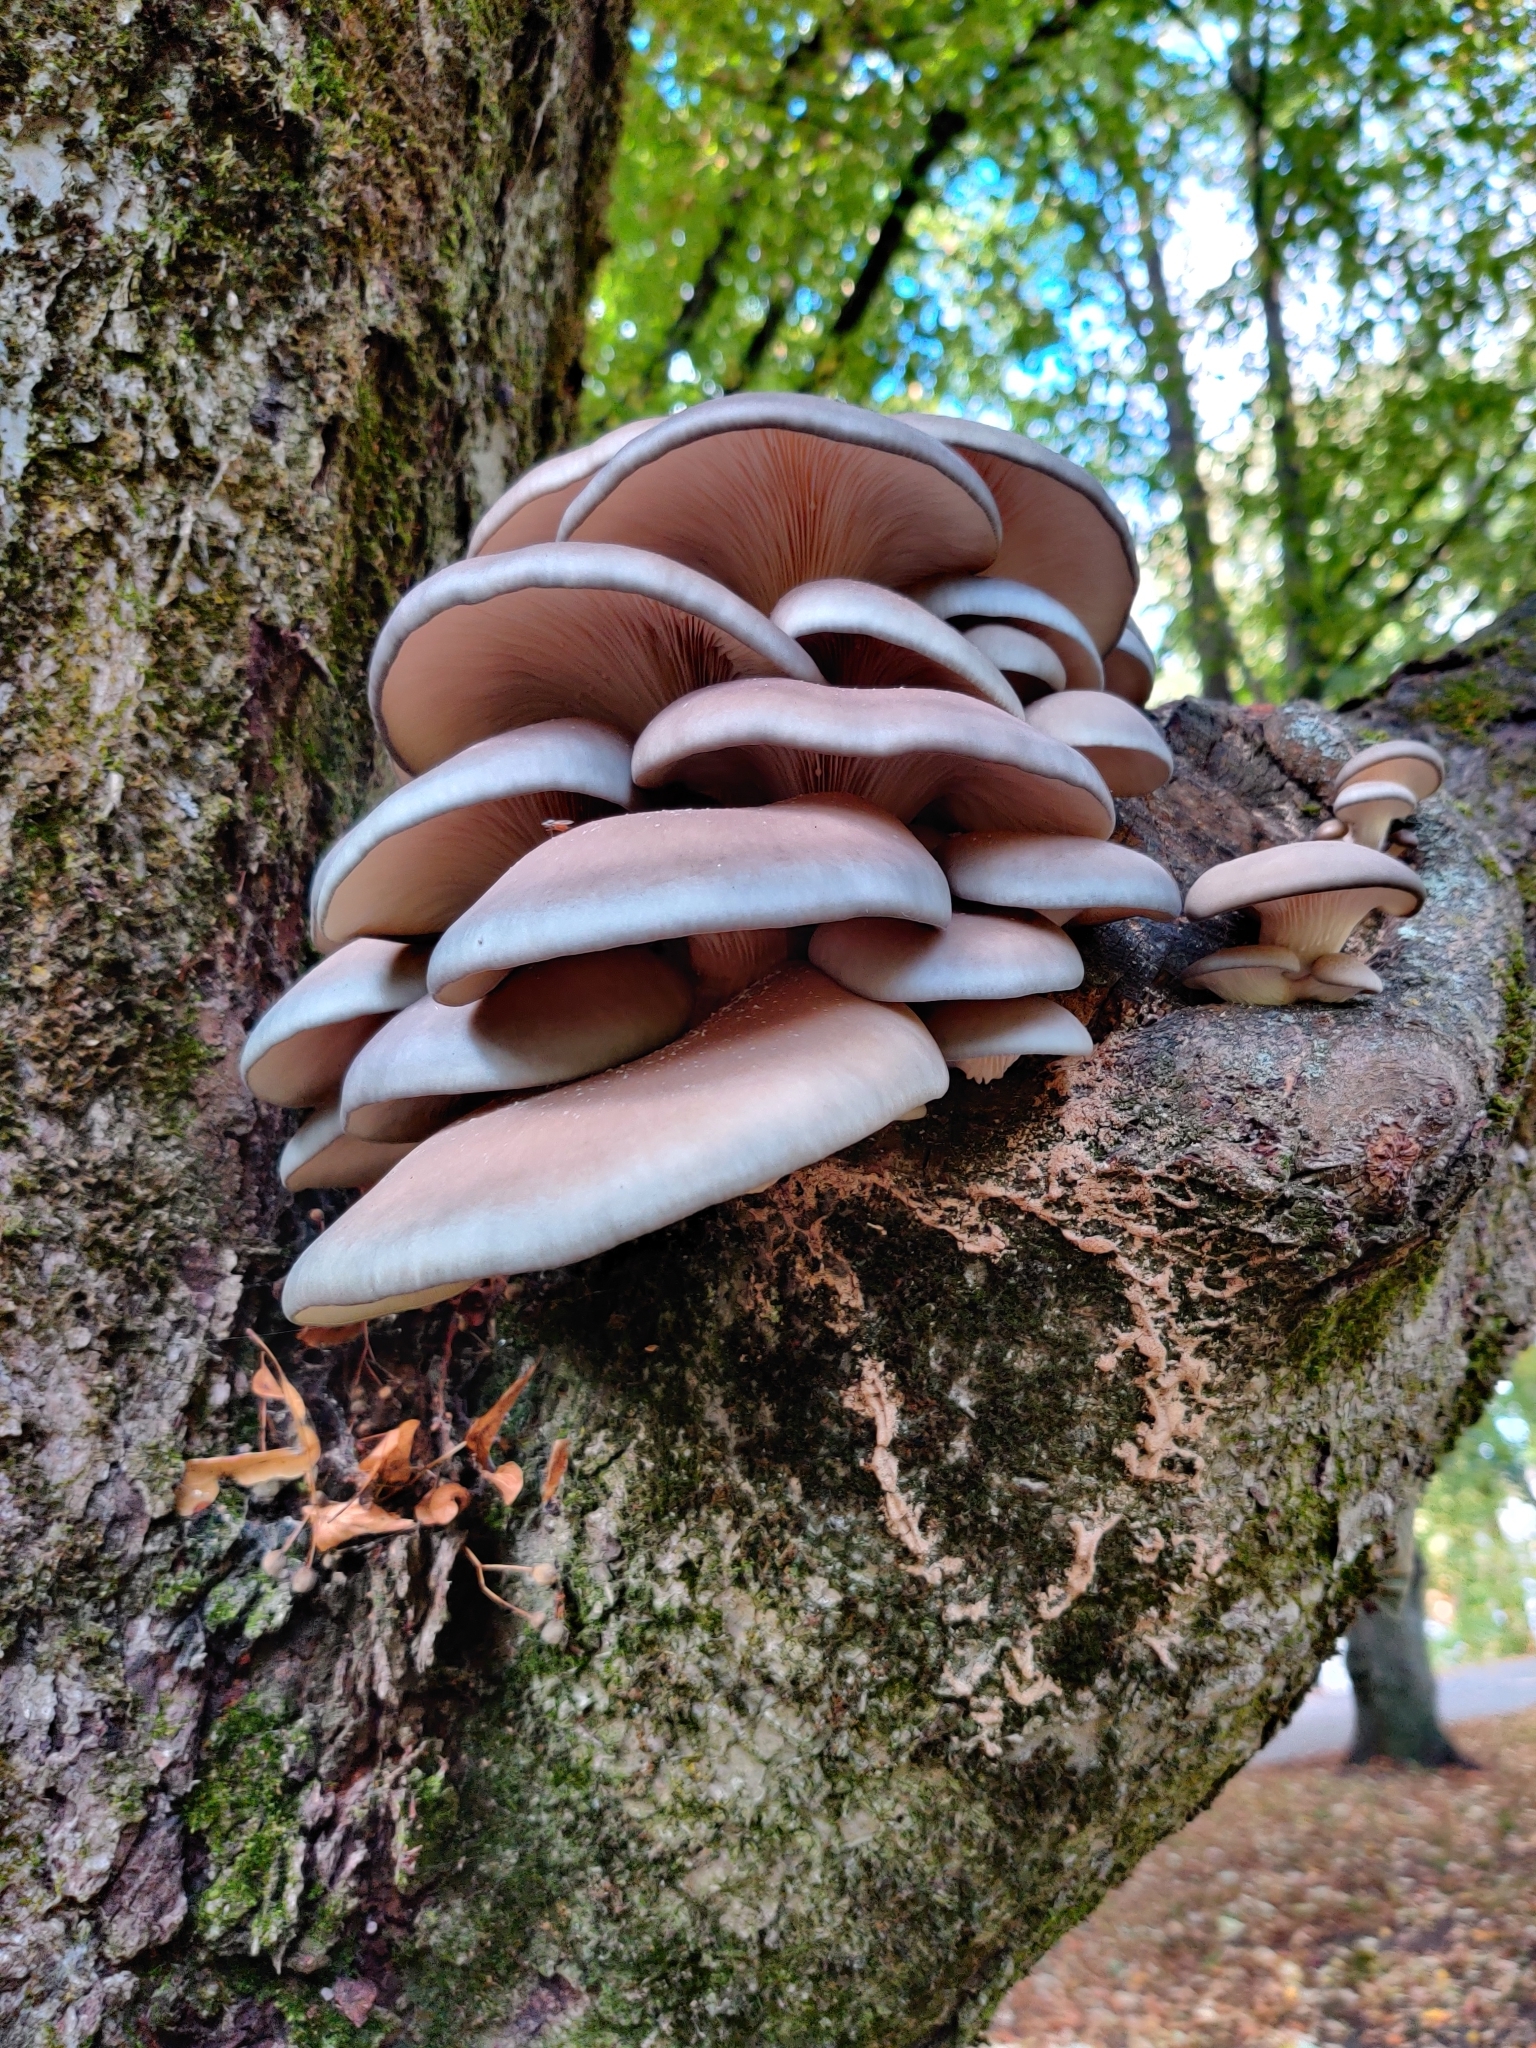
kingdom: Fungi
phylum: Basidiomycota
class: Agaricomycetes
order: Agaricales
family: Pleurotaceae
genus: Pleurotus
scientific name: Pleurotus ostreatus
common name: Oyster mushroom
